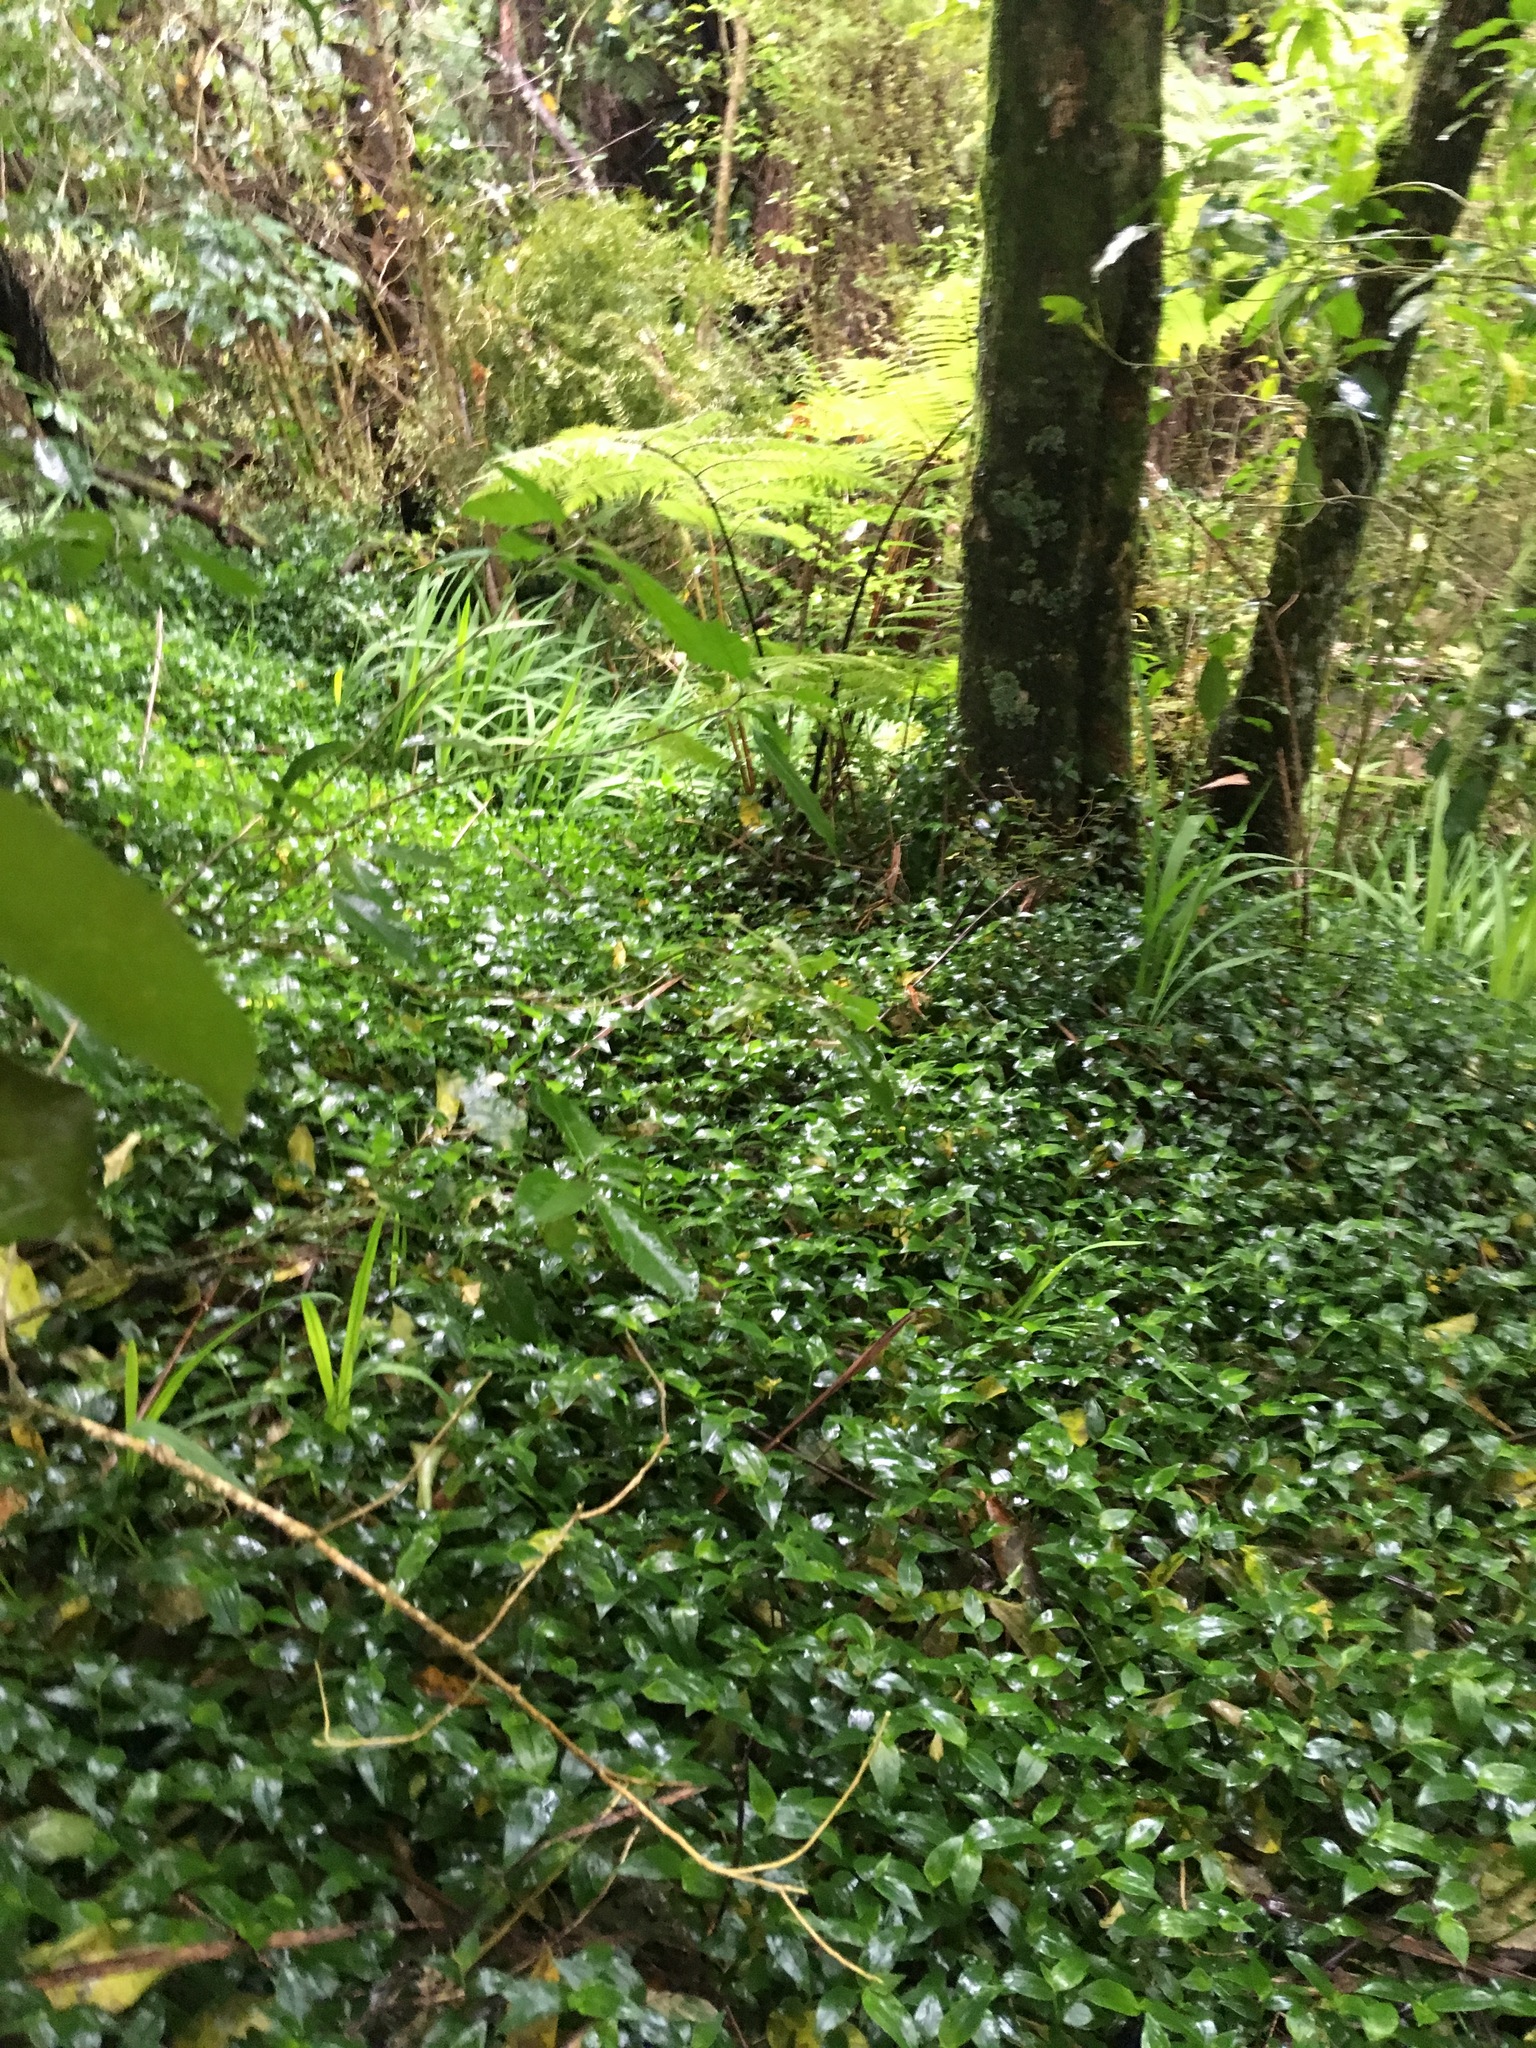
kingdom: Plantae
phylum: Tracheophyta
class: Liliopsida
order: Asparagales
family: Iridaceae
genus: Crocosmia
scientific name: Crocosmia crocosmiiflora
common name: Montbretia
